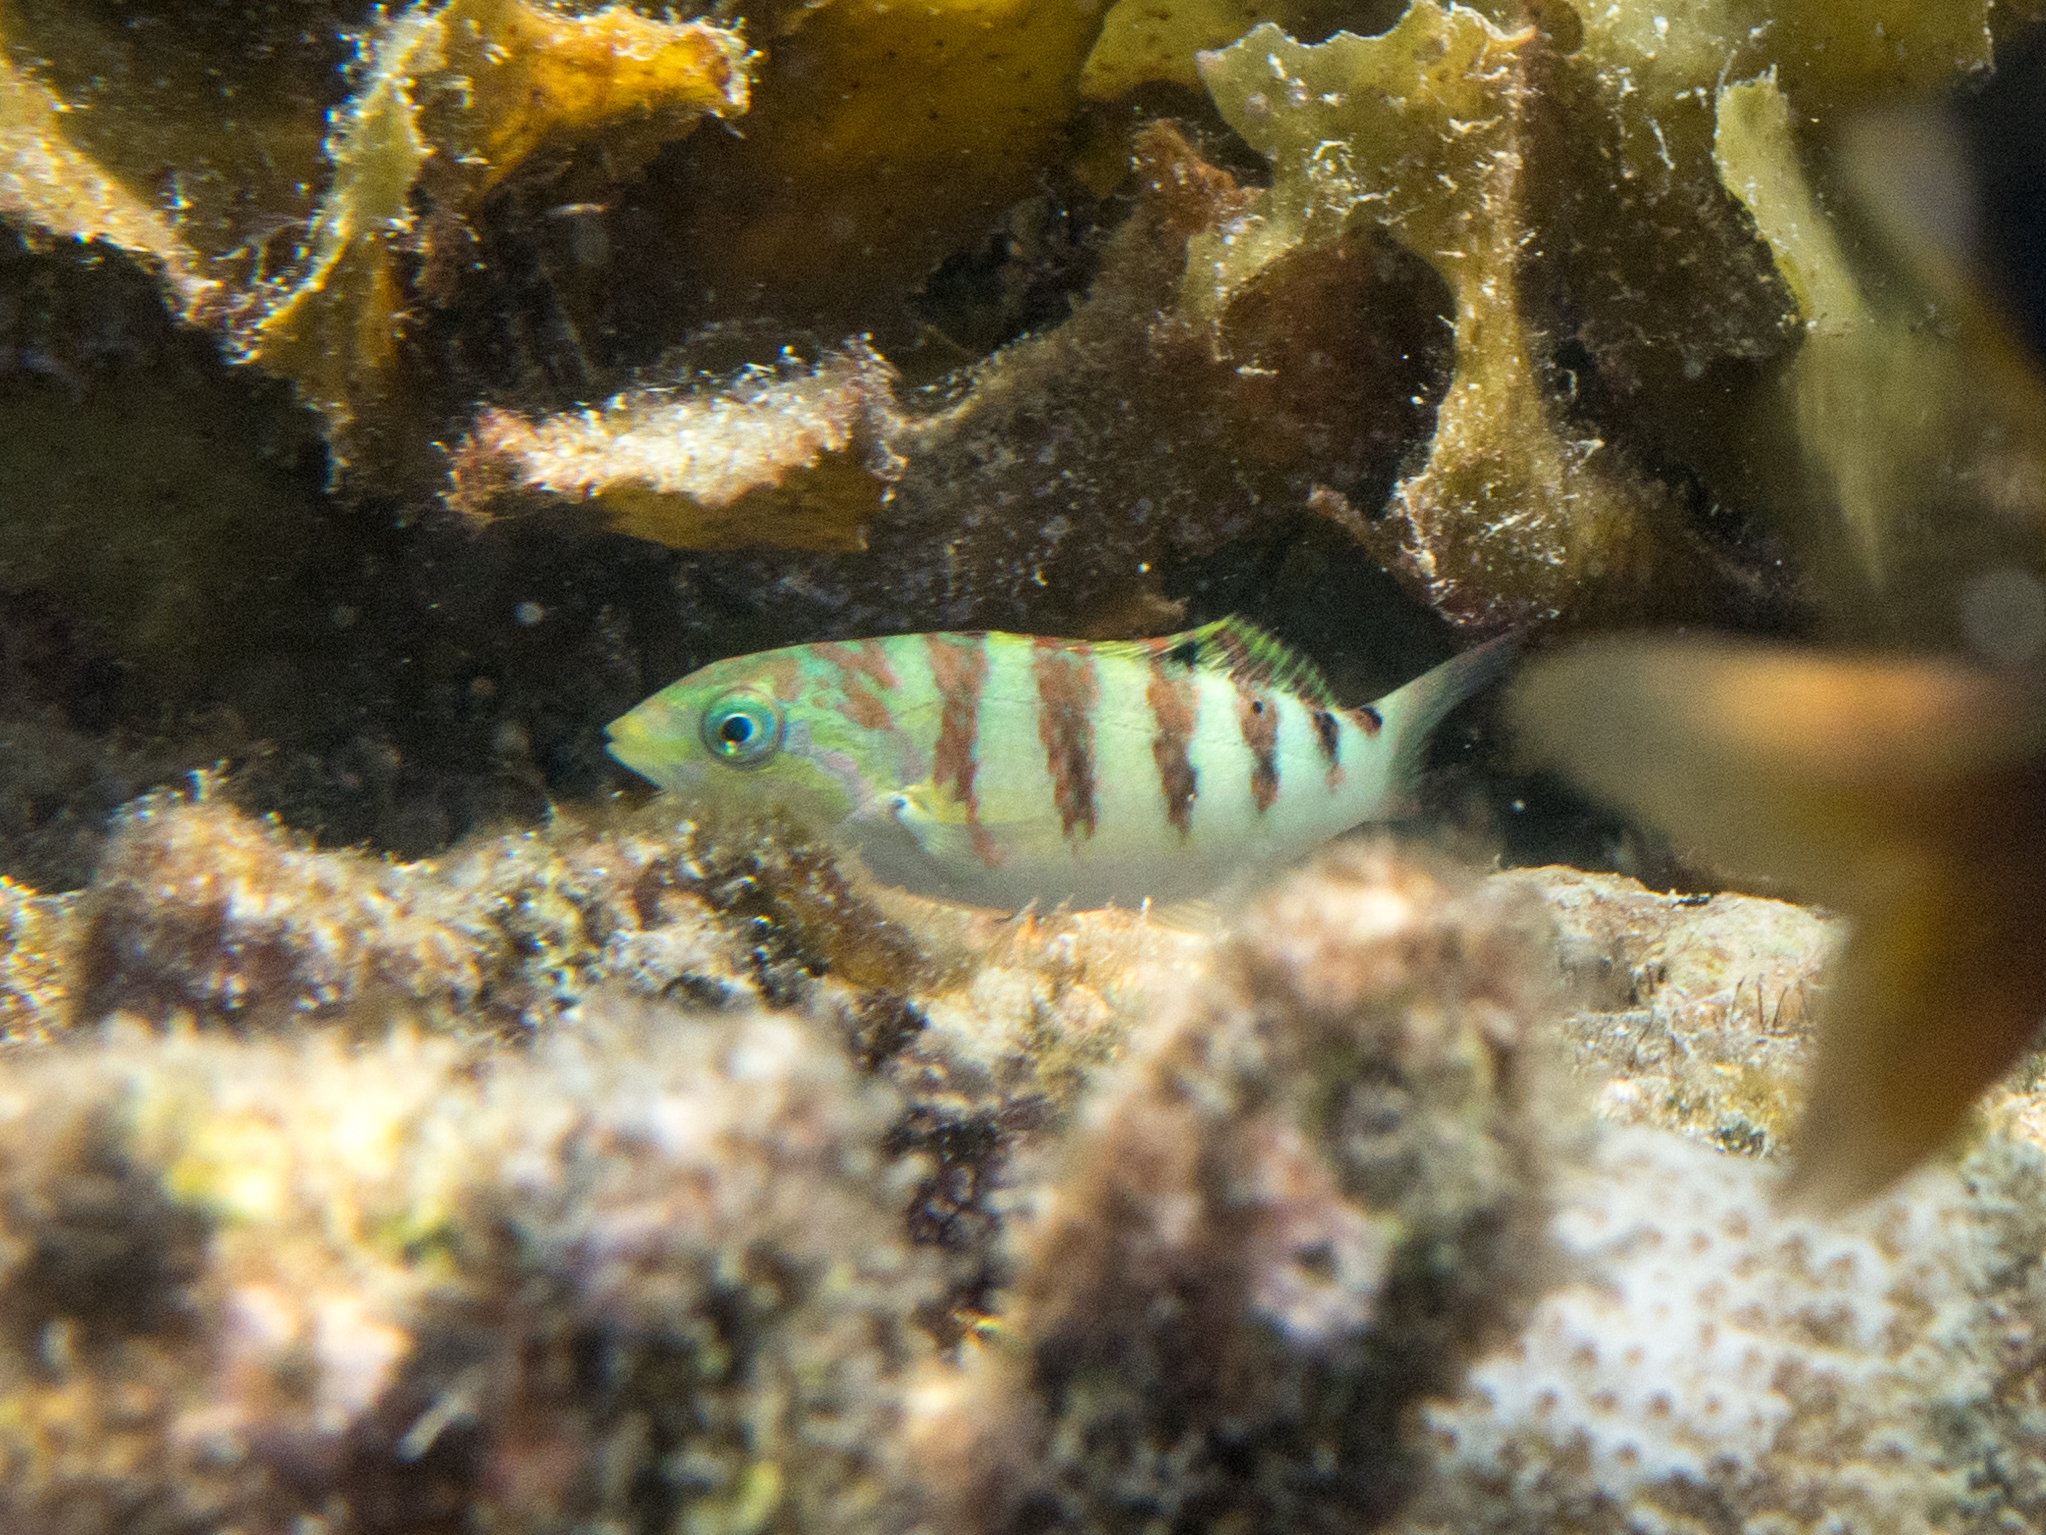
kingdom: Animalia
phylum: Chordata
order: Perciformes
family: Labridae
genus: Thalassoma
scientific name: Thalassoma hardwicke
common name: Sixbar wrasse
